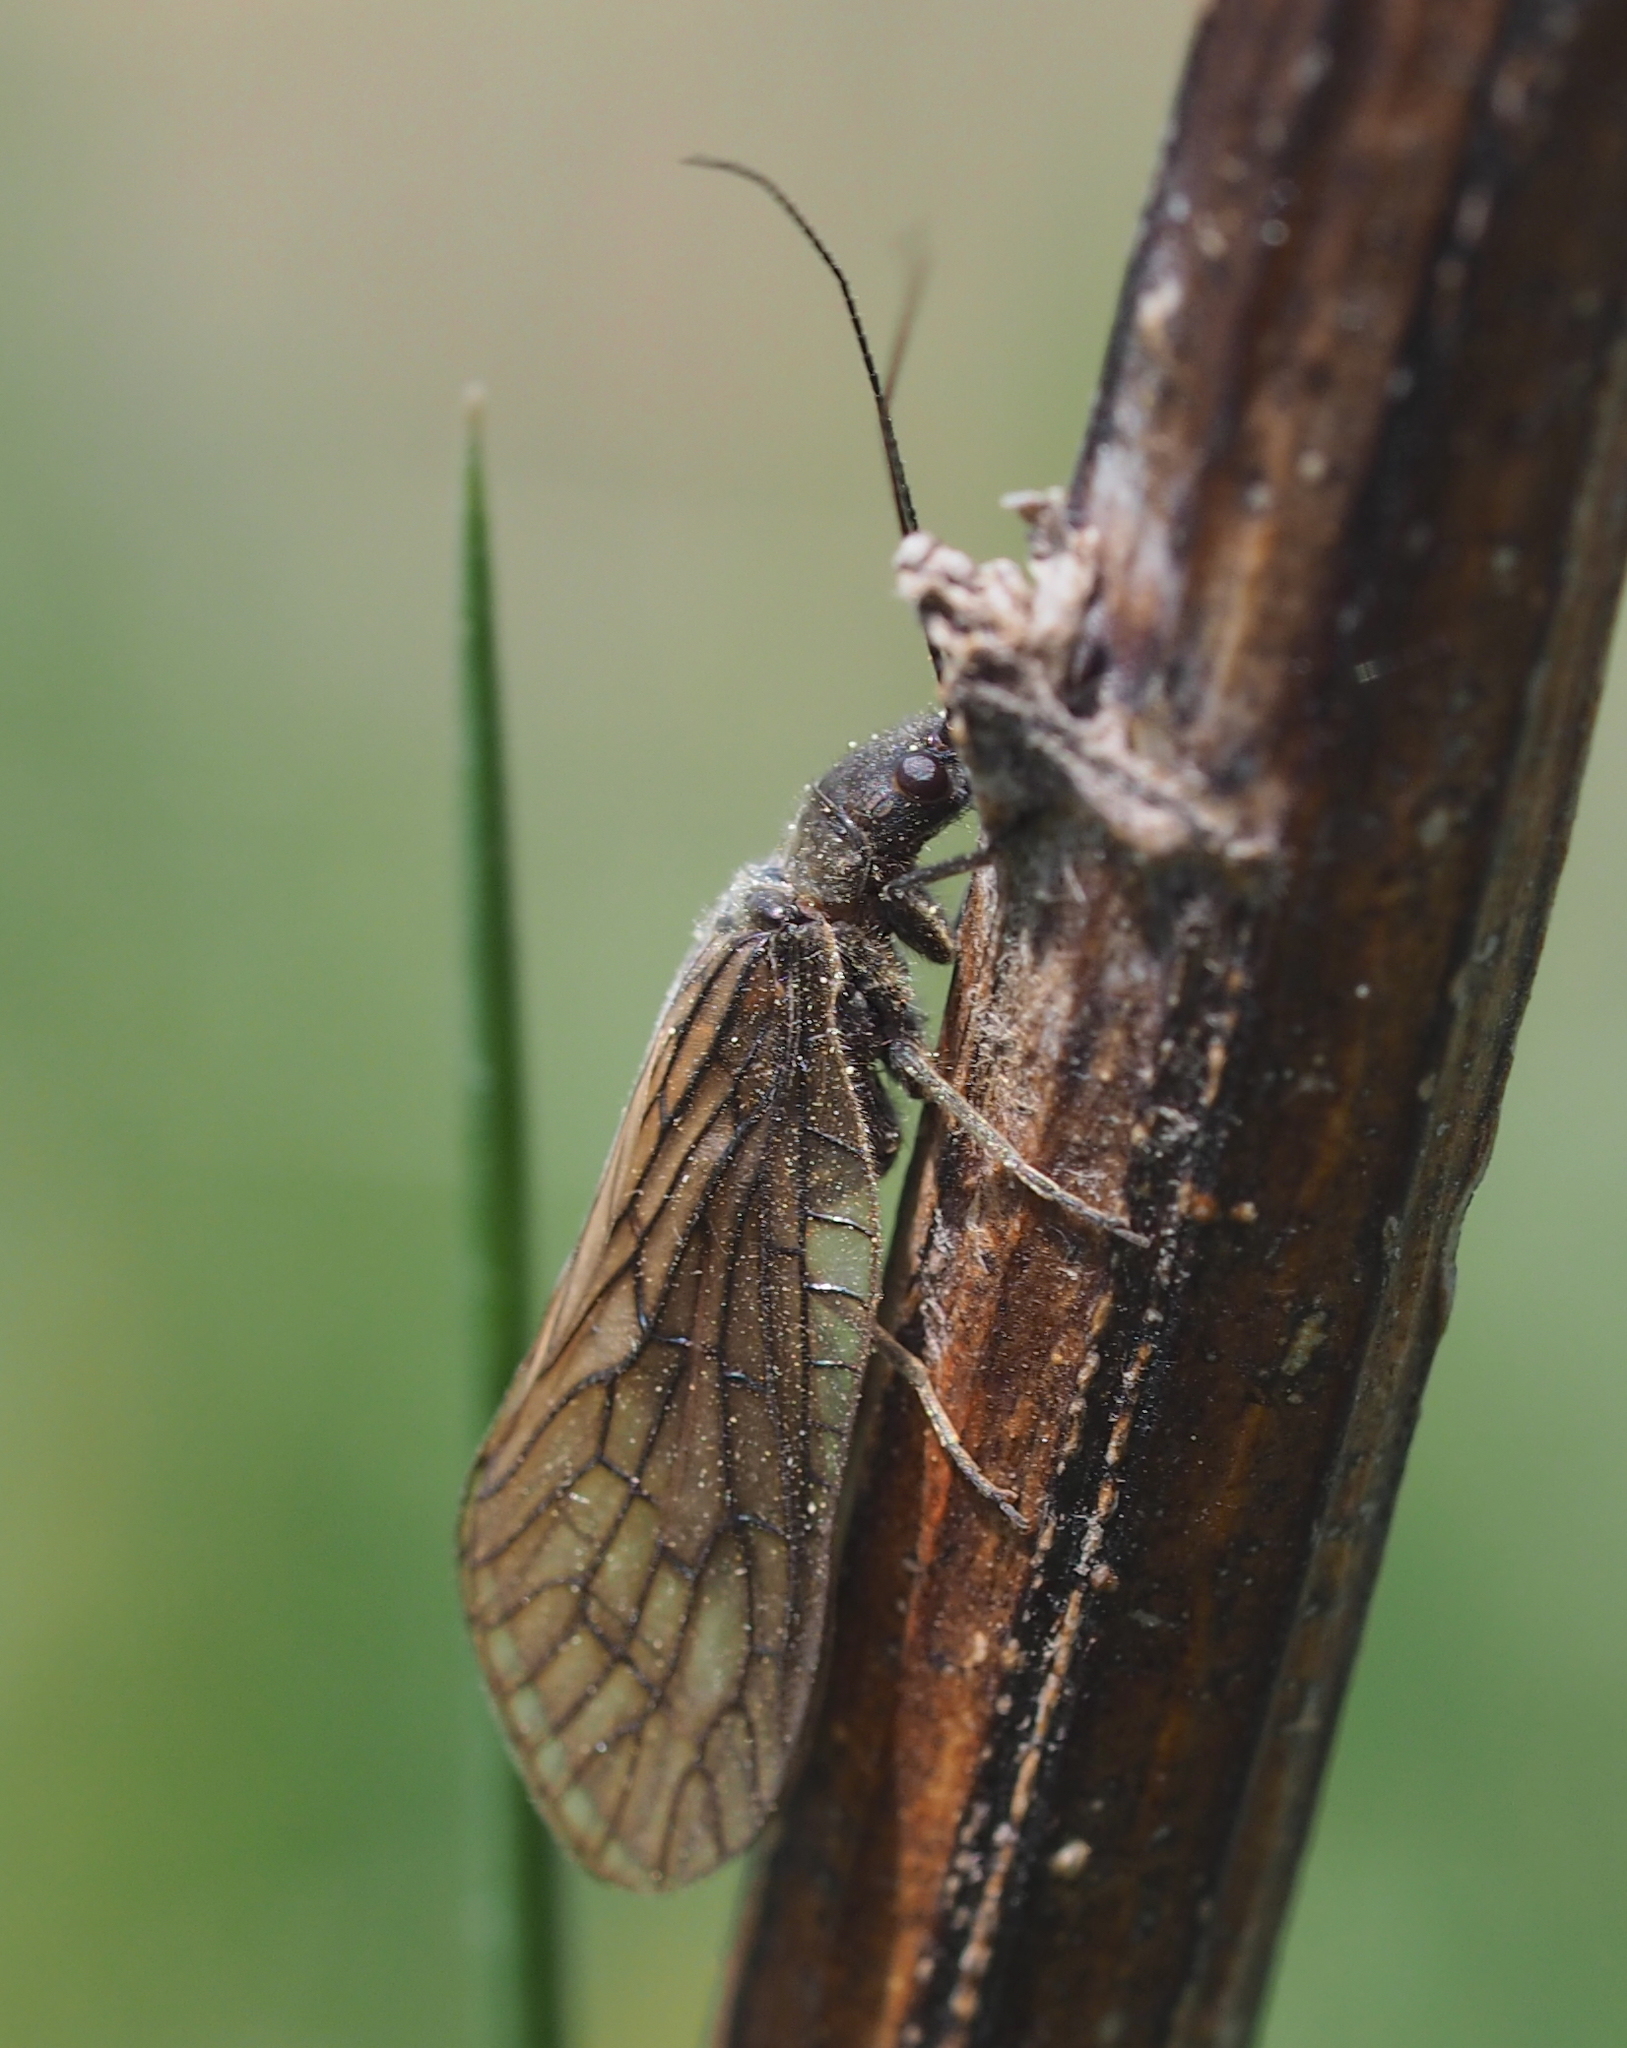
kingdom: Animalia
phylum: Arthropoda
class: Insecta
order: Megaloptera
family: Sialidae
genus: Sialis
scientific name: Sialis
